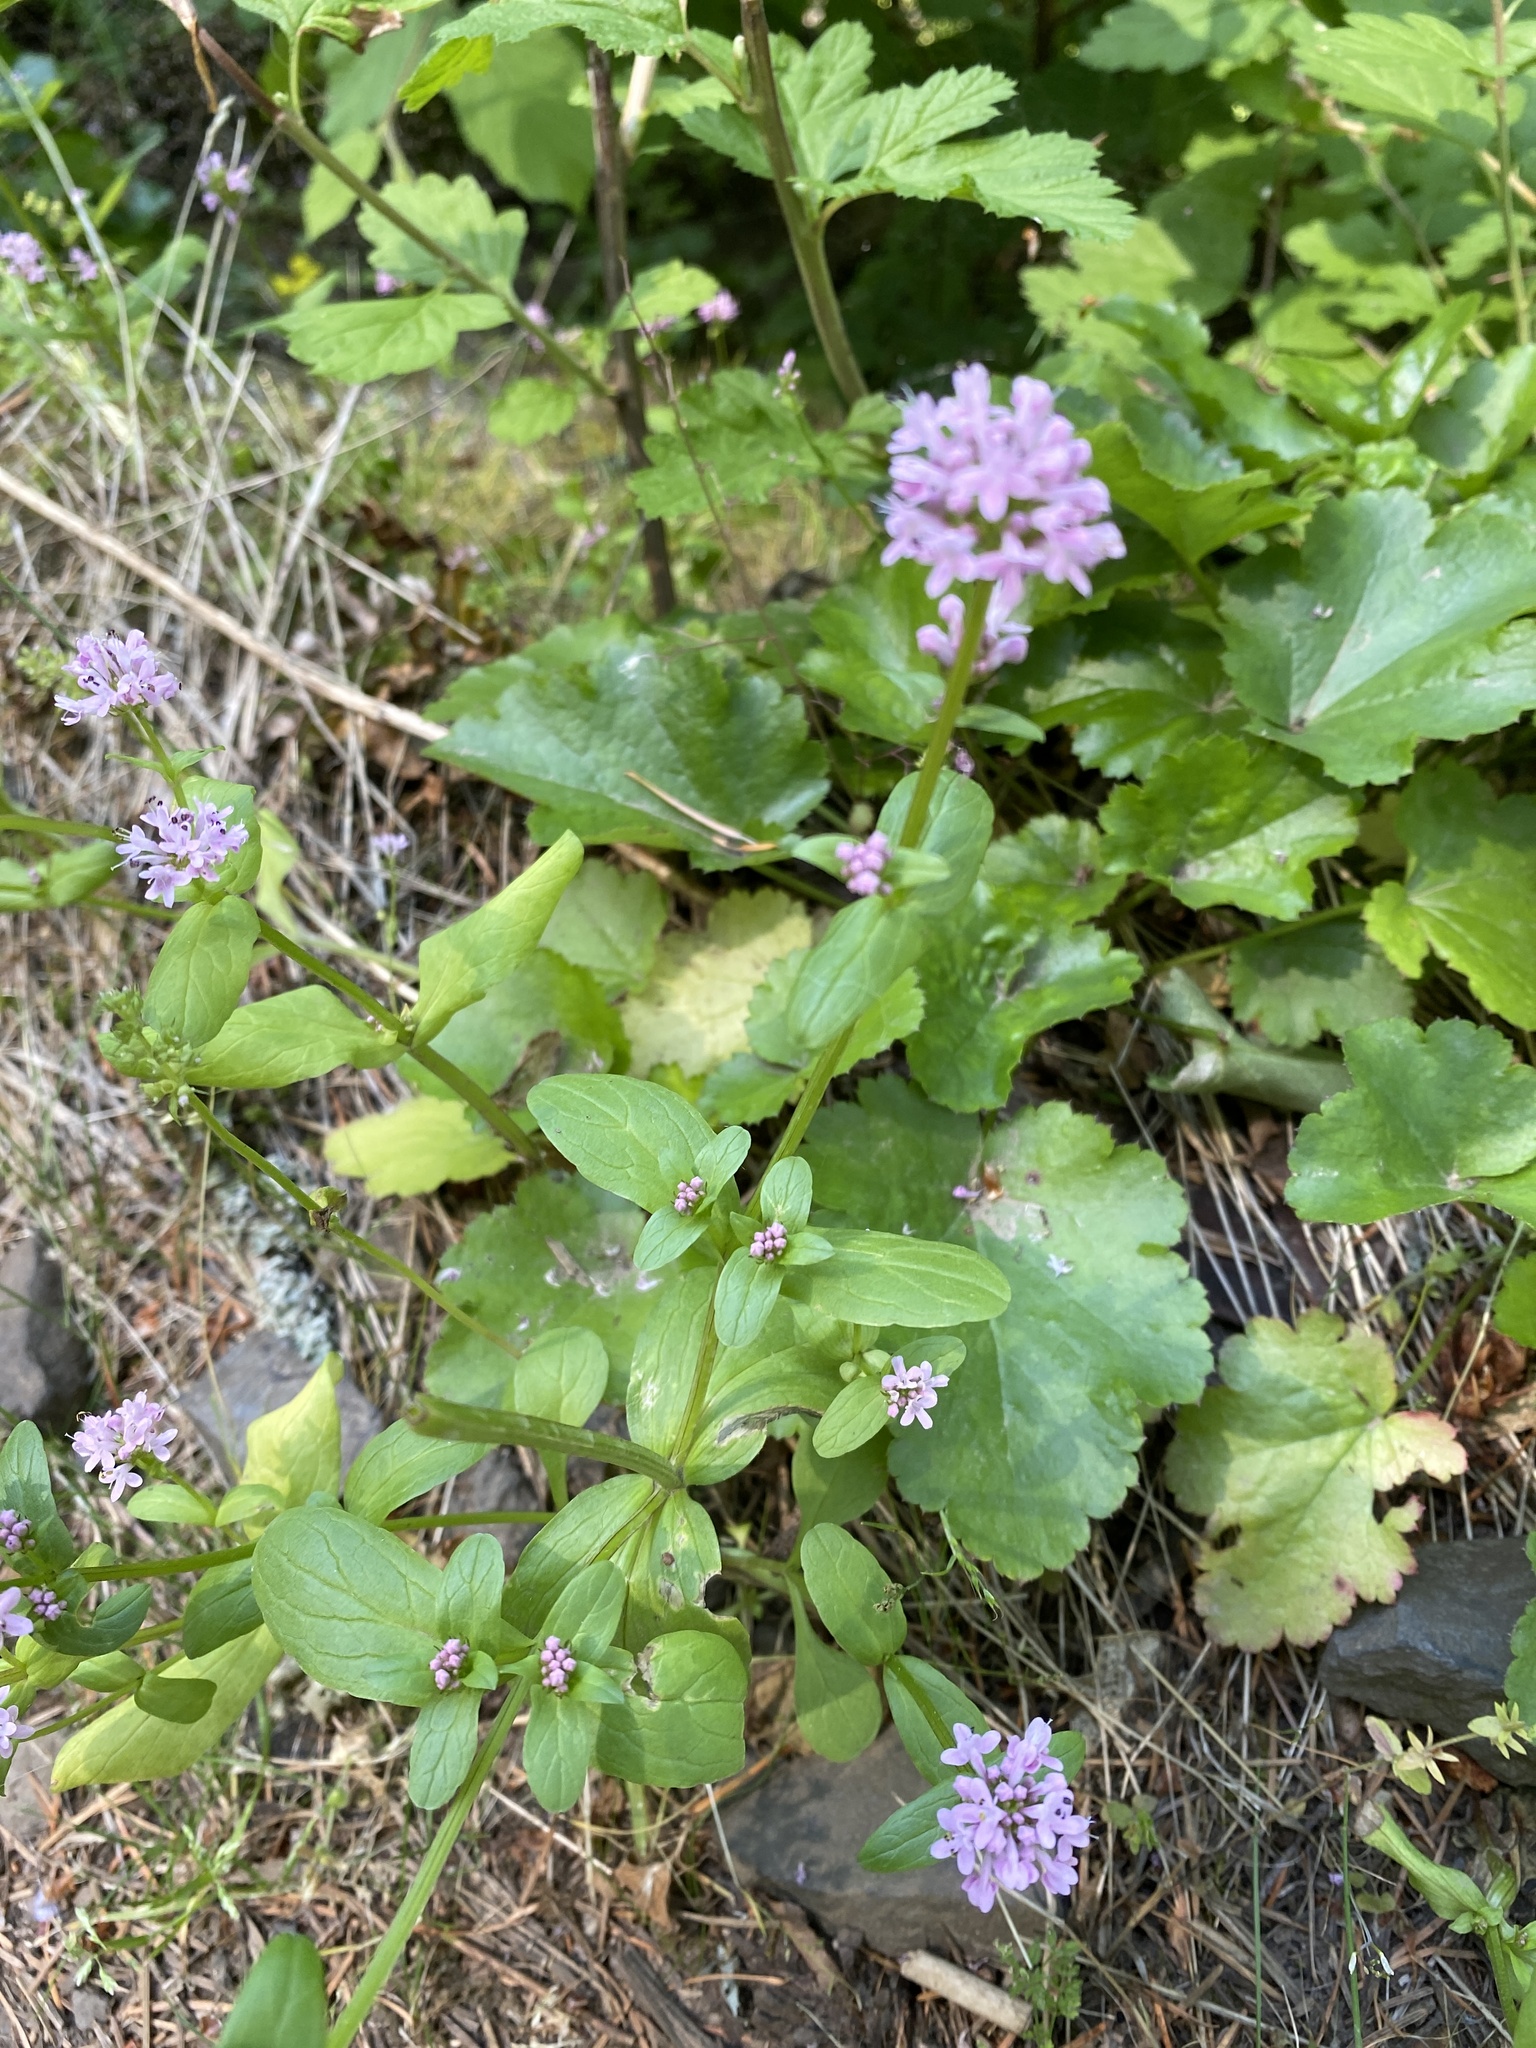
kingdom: Plantae
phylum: Tracheophyta
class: Magnoliopsida
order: Dipsacales
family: Caprifoliaceae
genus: Plectritis
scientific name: Plectritis congesta
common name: Pink plectritis
